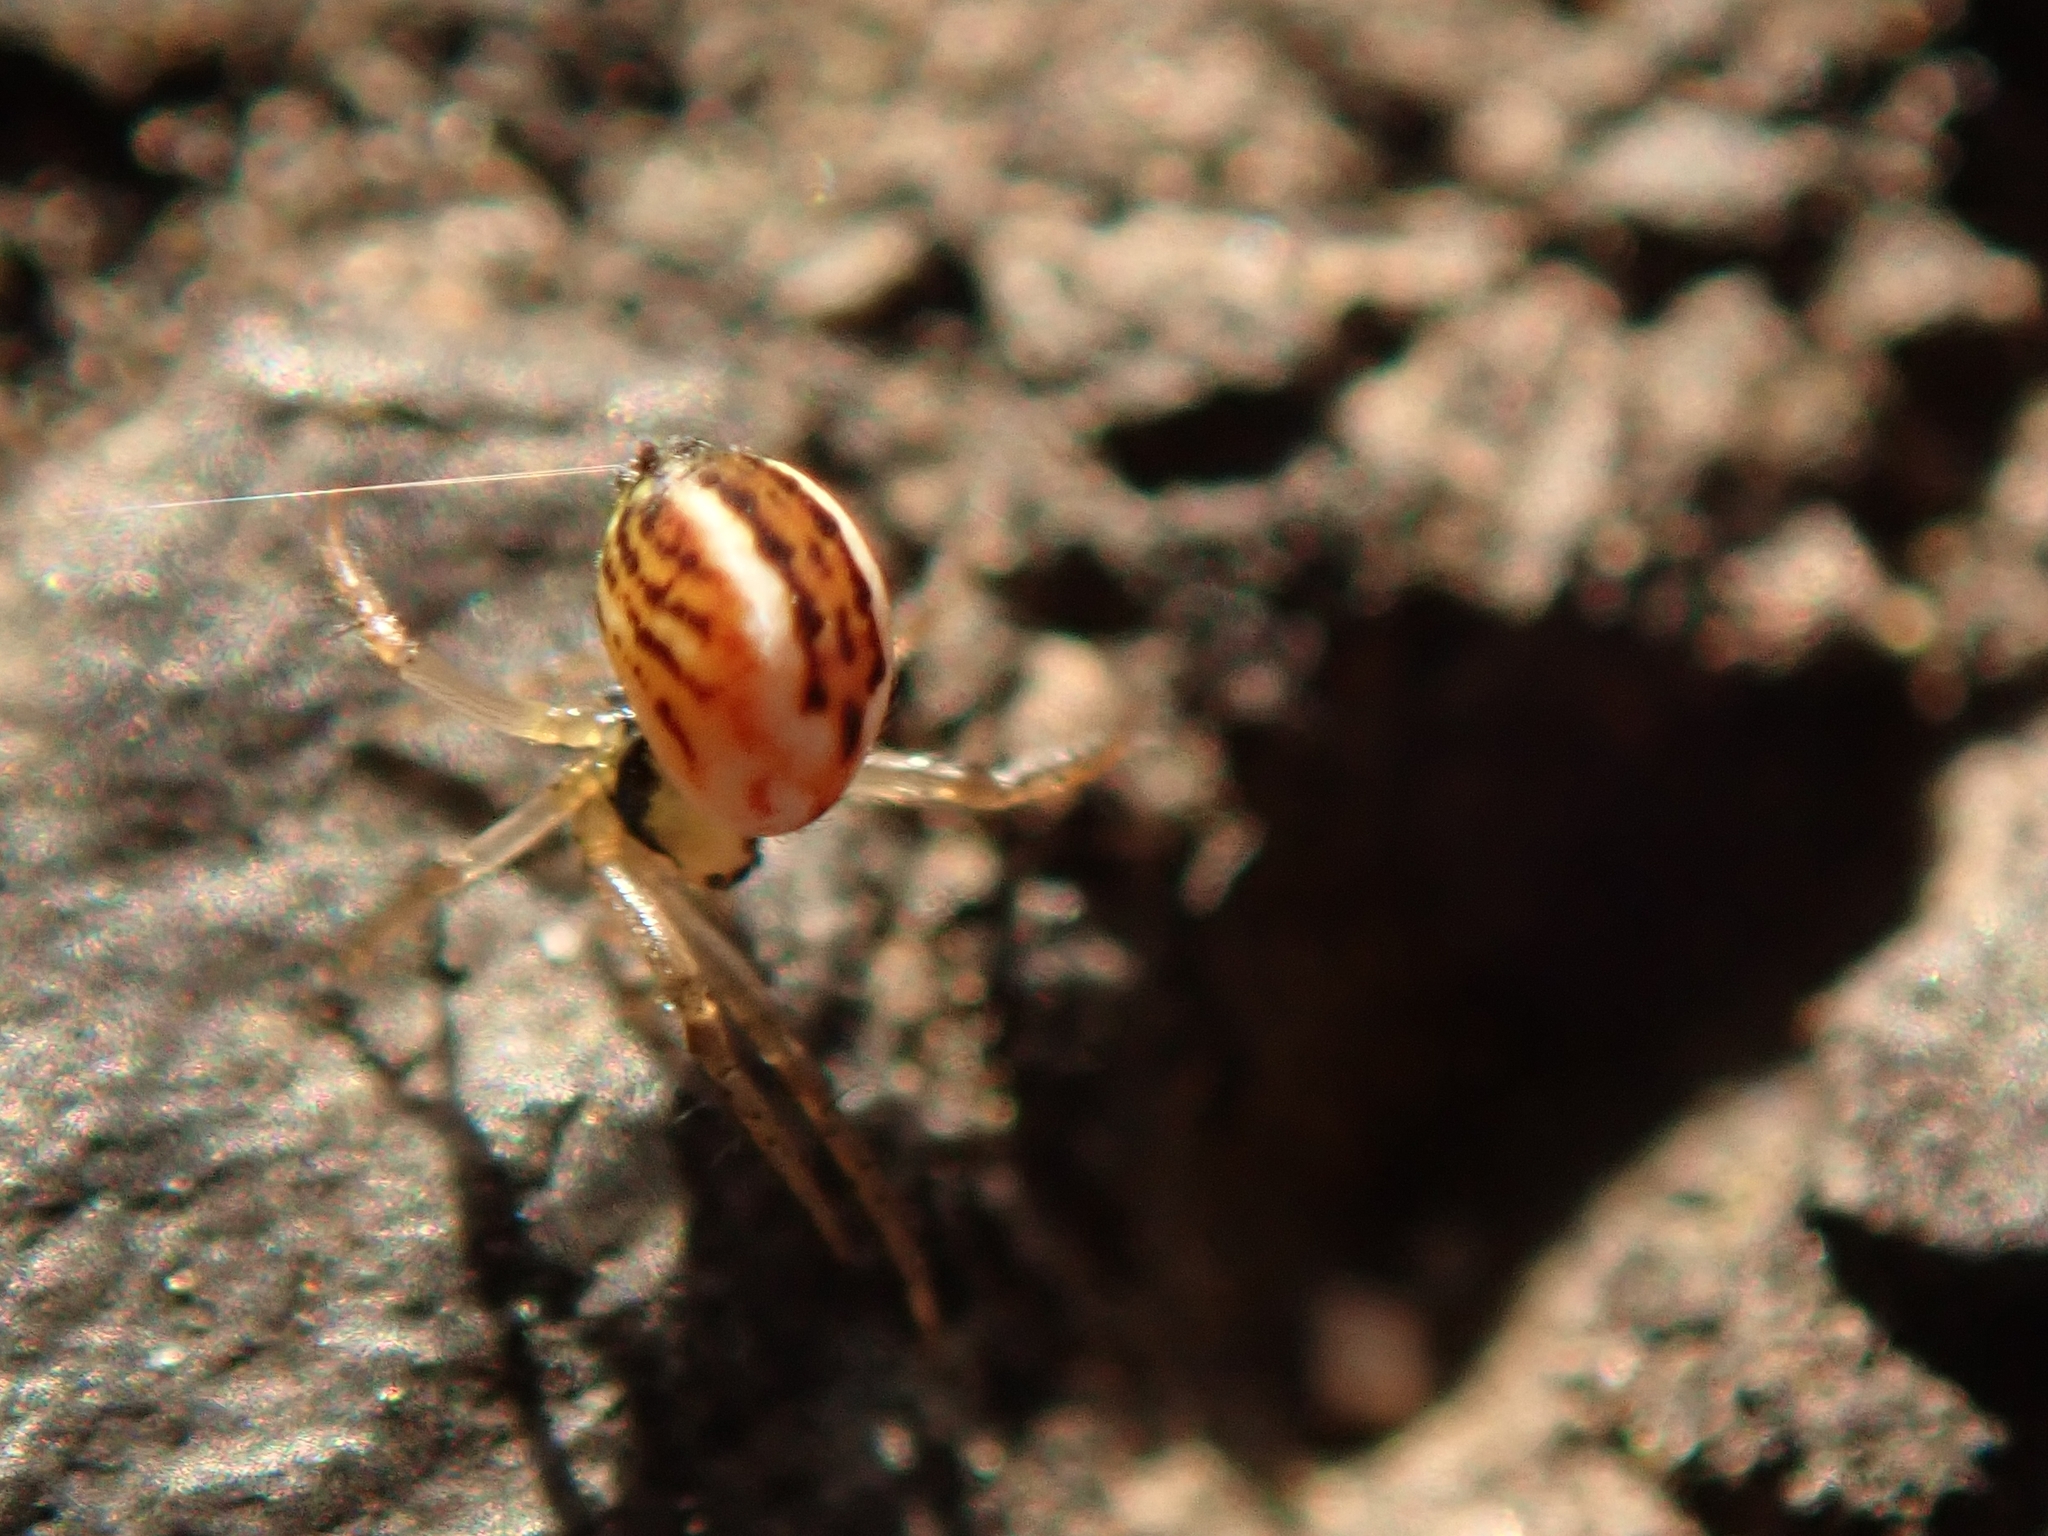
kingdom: Animalia
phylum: Arthropoda
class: Arachnida
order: Araneae
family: Araneidae
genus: Mangora
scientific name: Mangora acalypha
